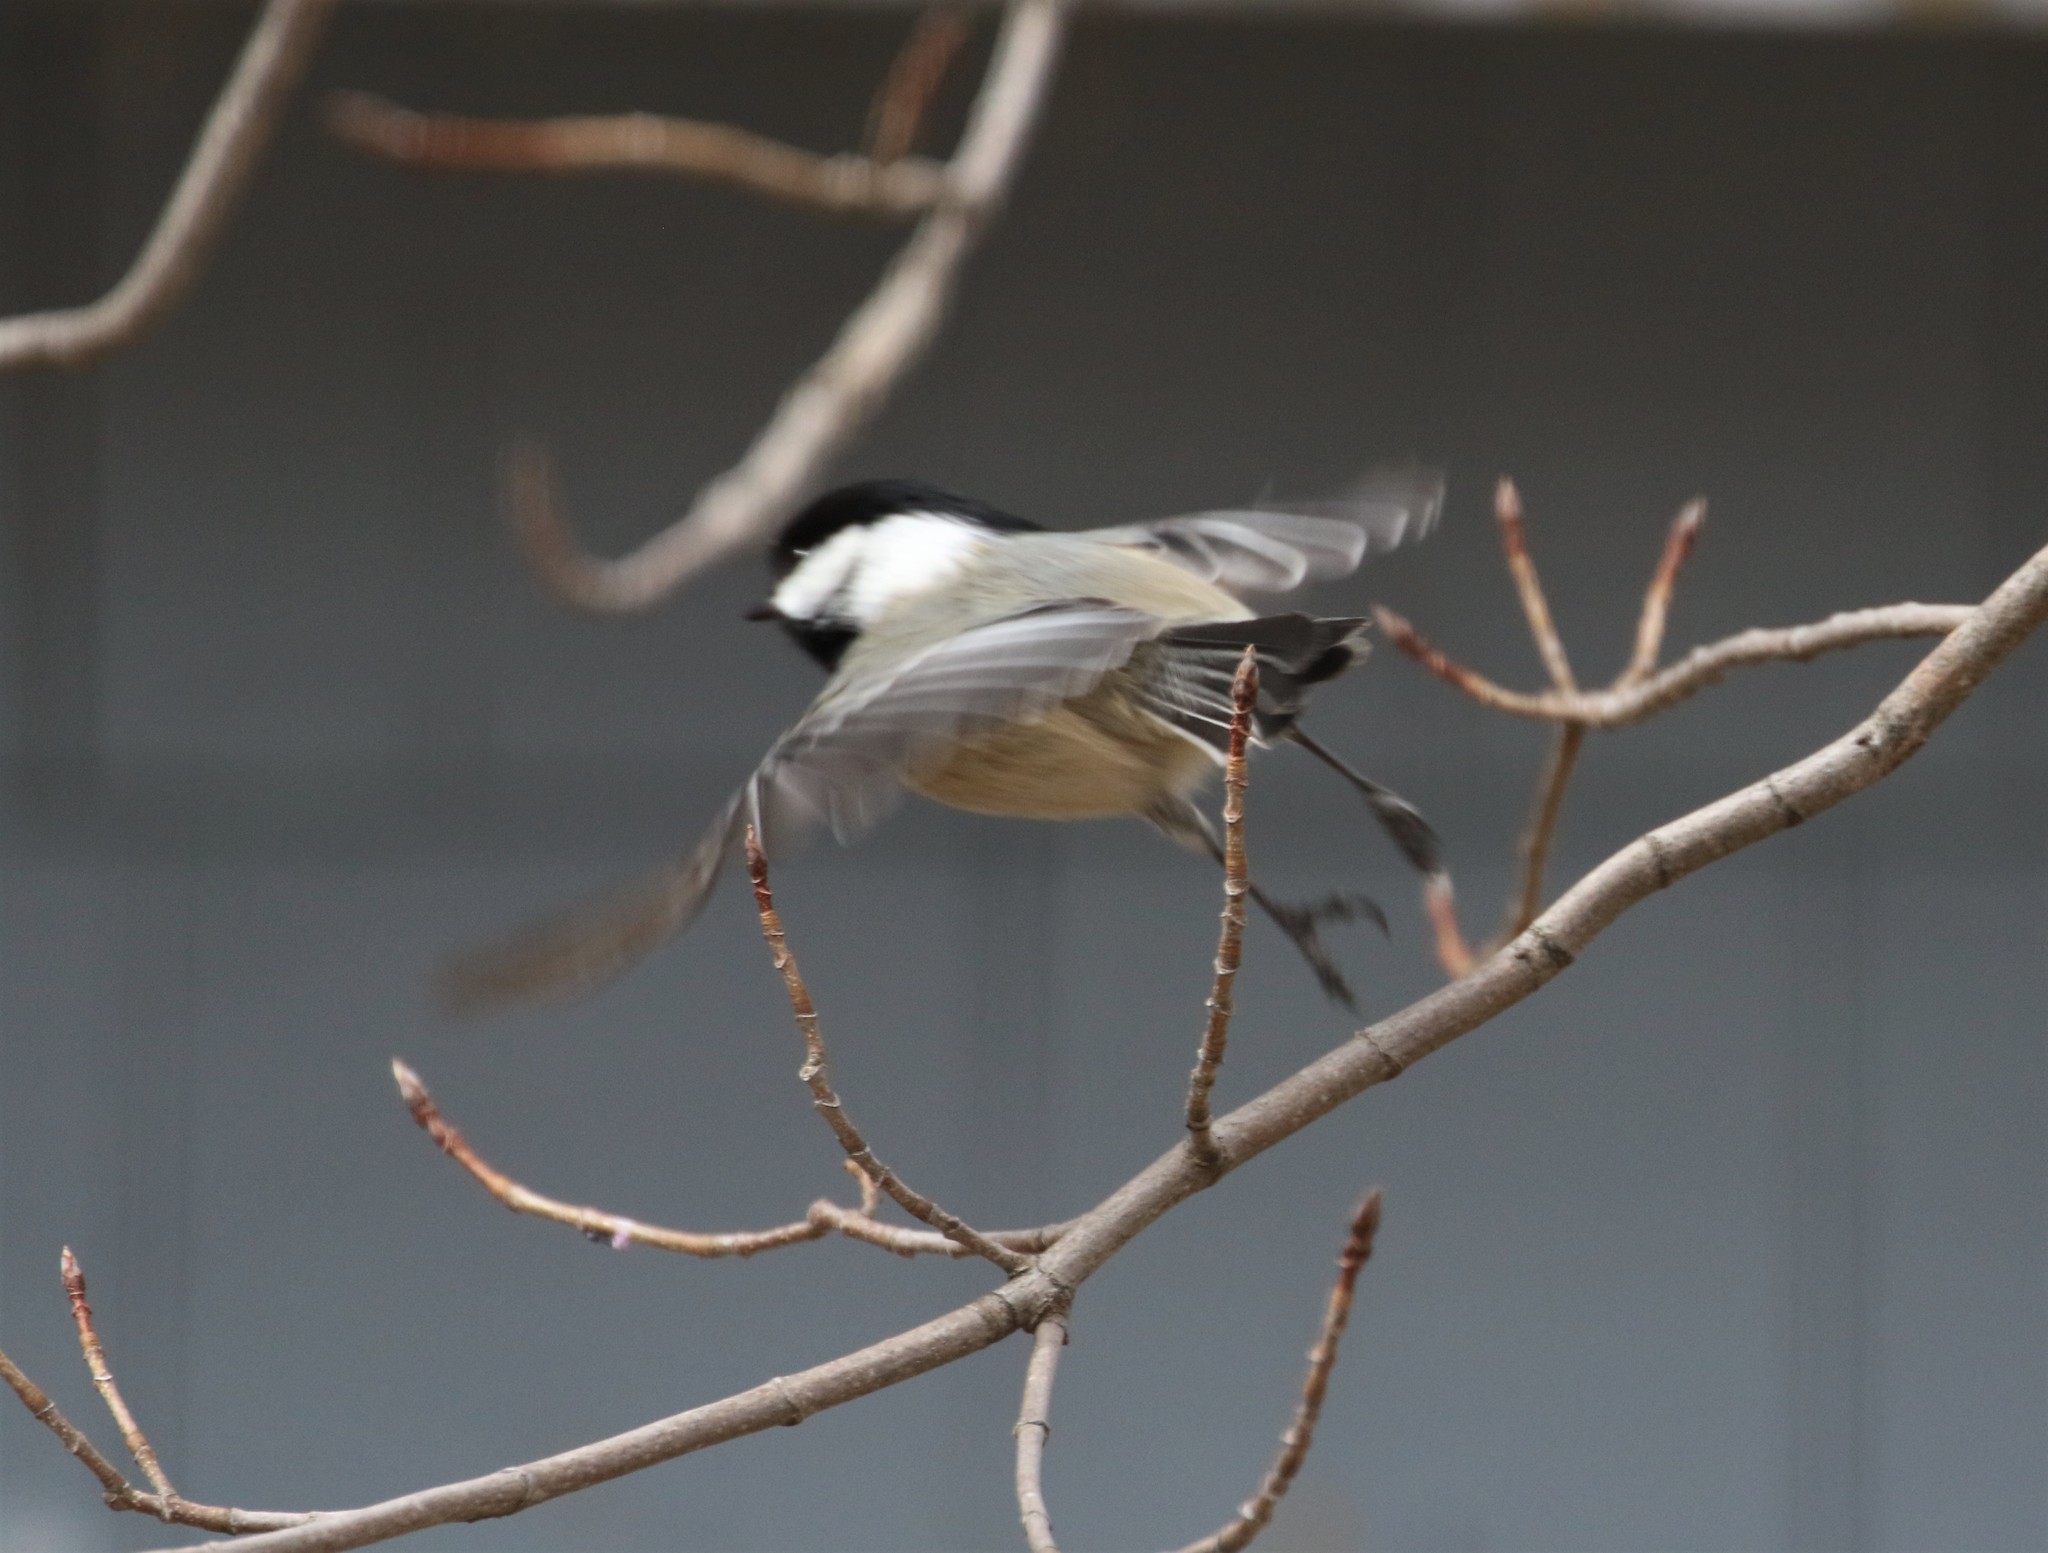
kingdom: Animalia
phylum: Chordata
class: Aves
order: Passeriformes
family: Paridae
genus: Poecile
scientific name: Poecile atricapillus
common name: Black-capped chickadee
